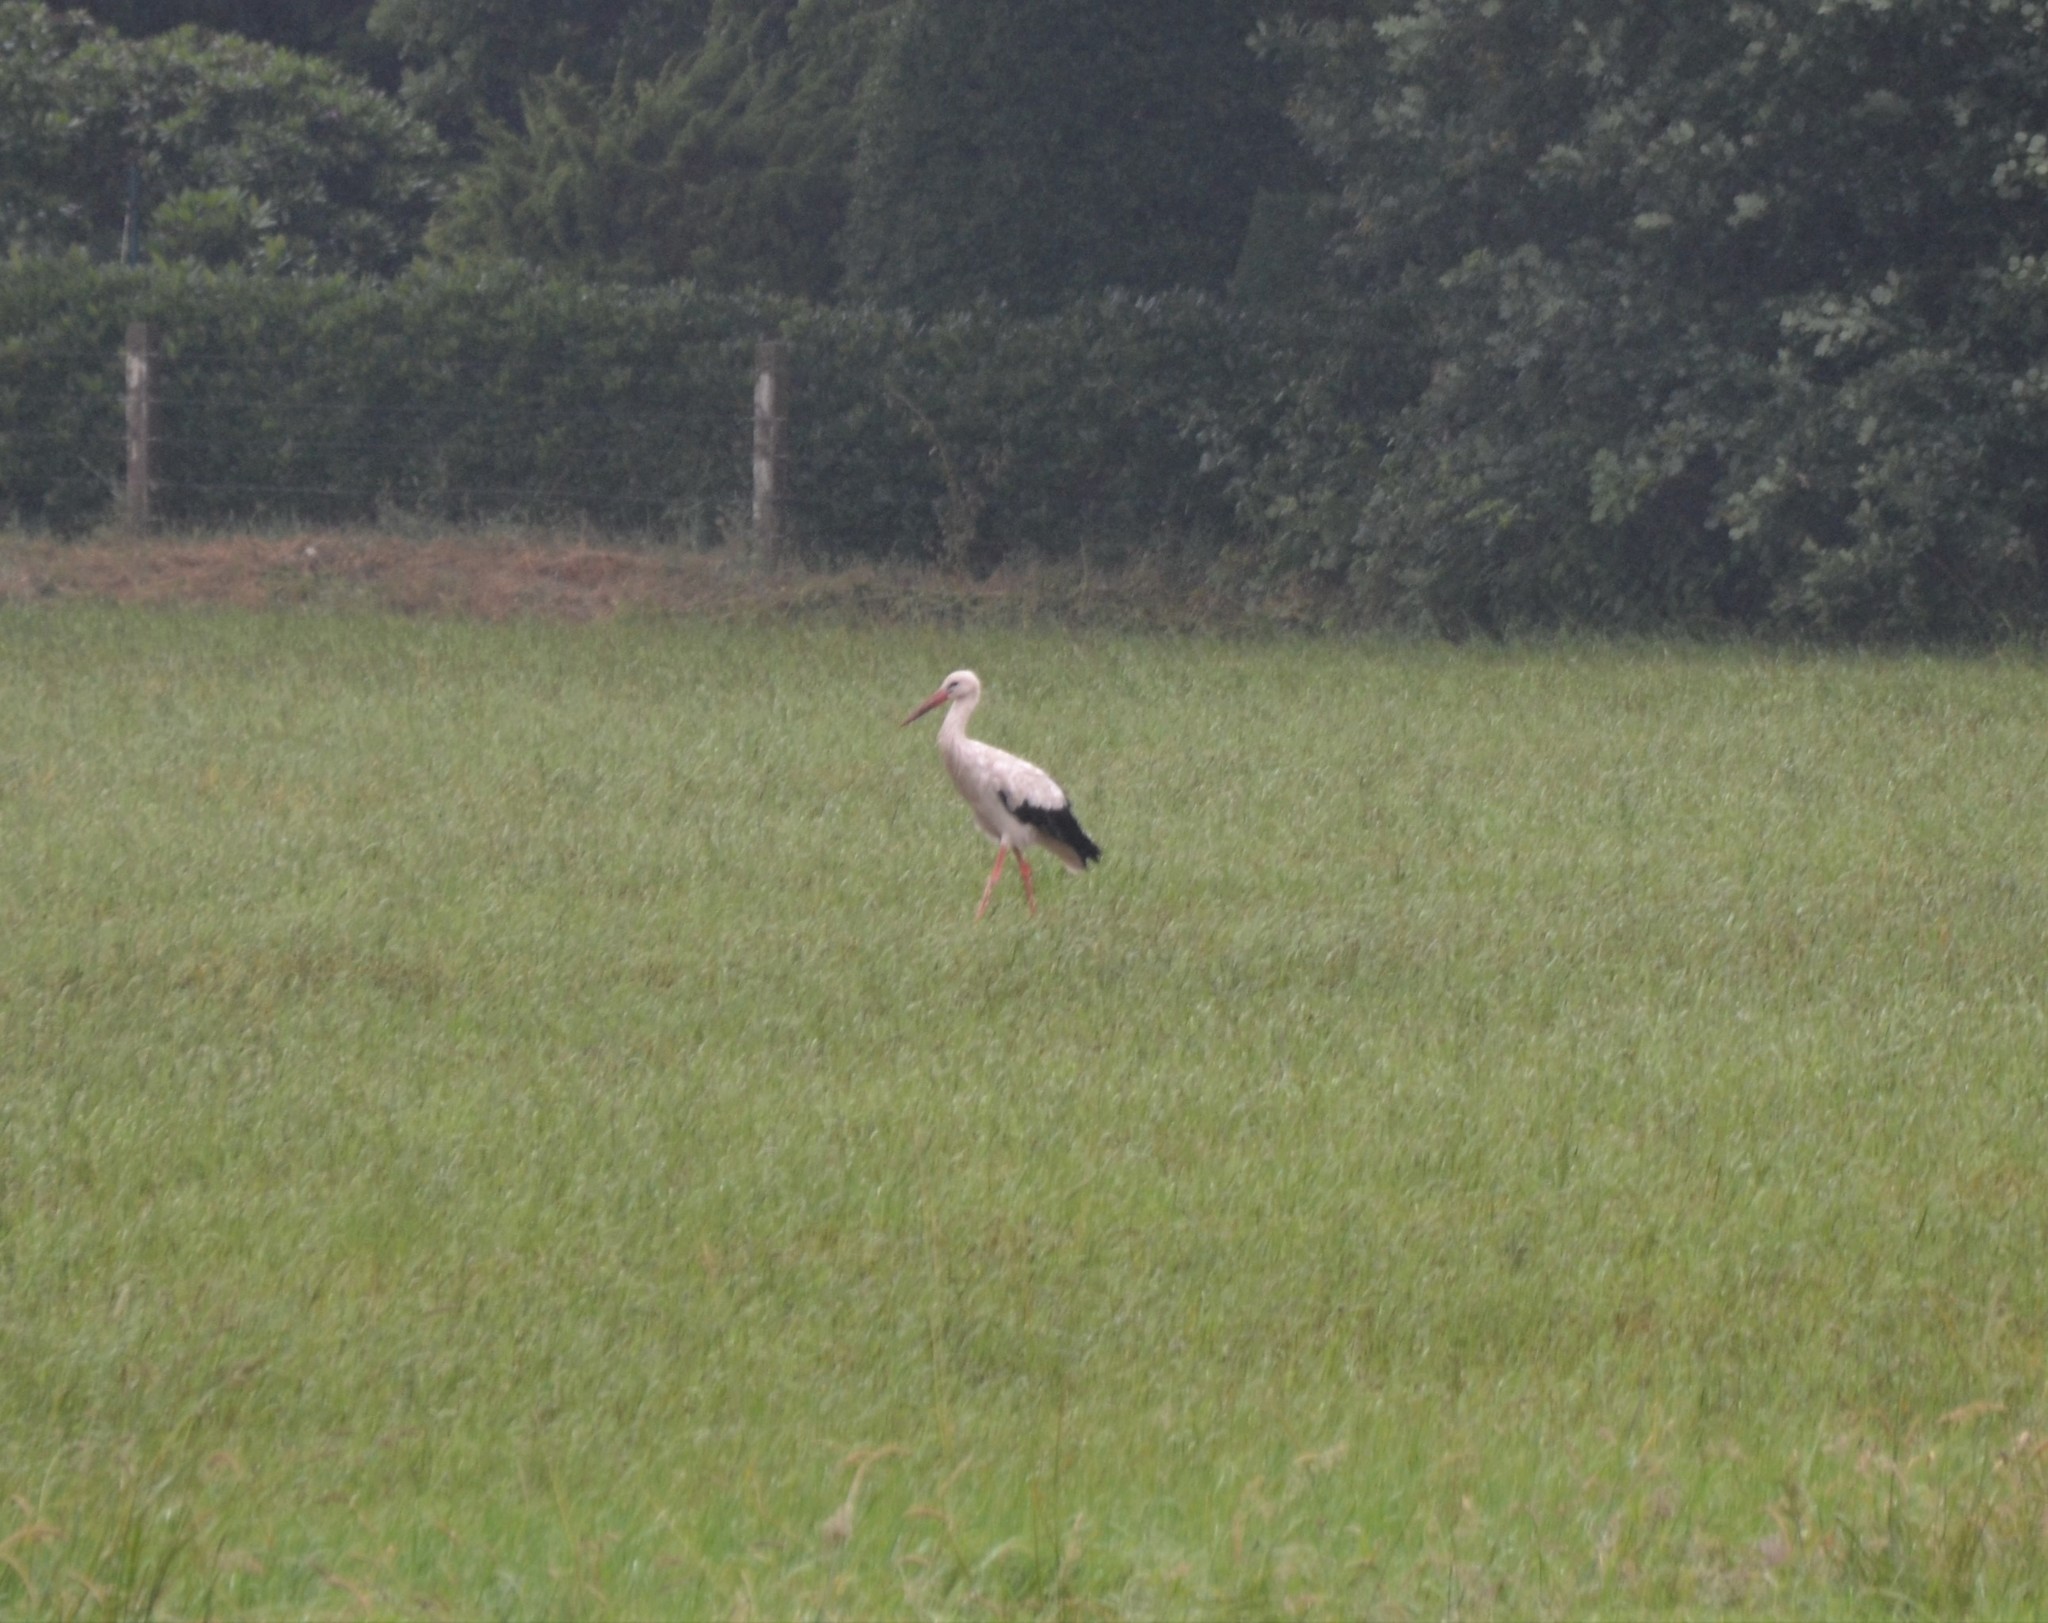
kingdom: Animalia
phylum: Chordata
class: Aves
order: Ciconiiformes
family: Ciconiidae
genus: Ciconia
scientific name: Ciconia ciconia
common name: White stork
